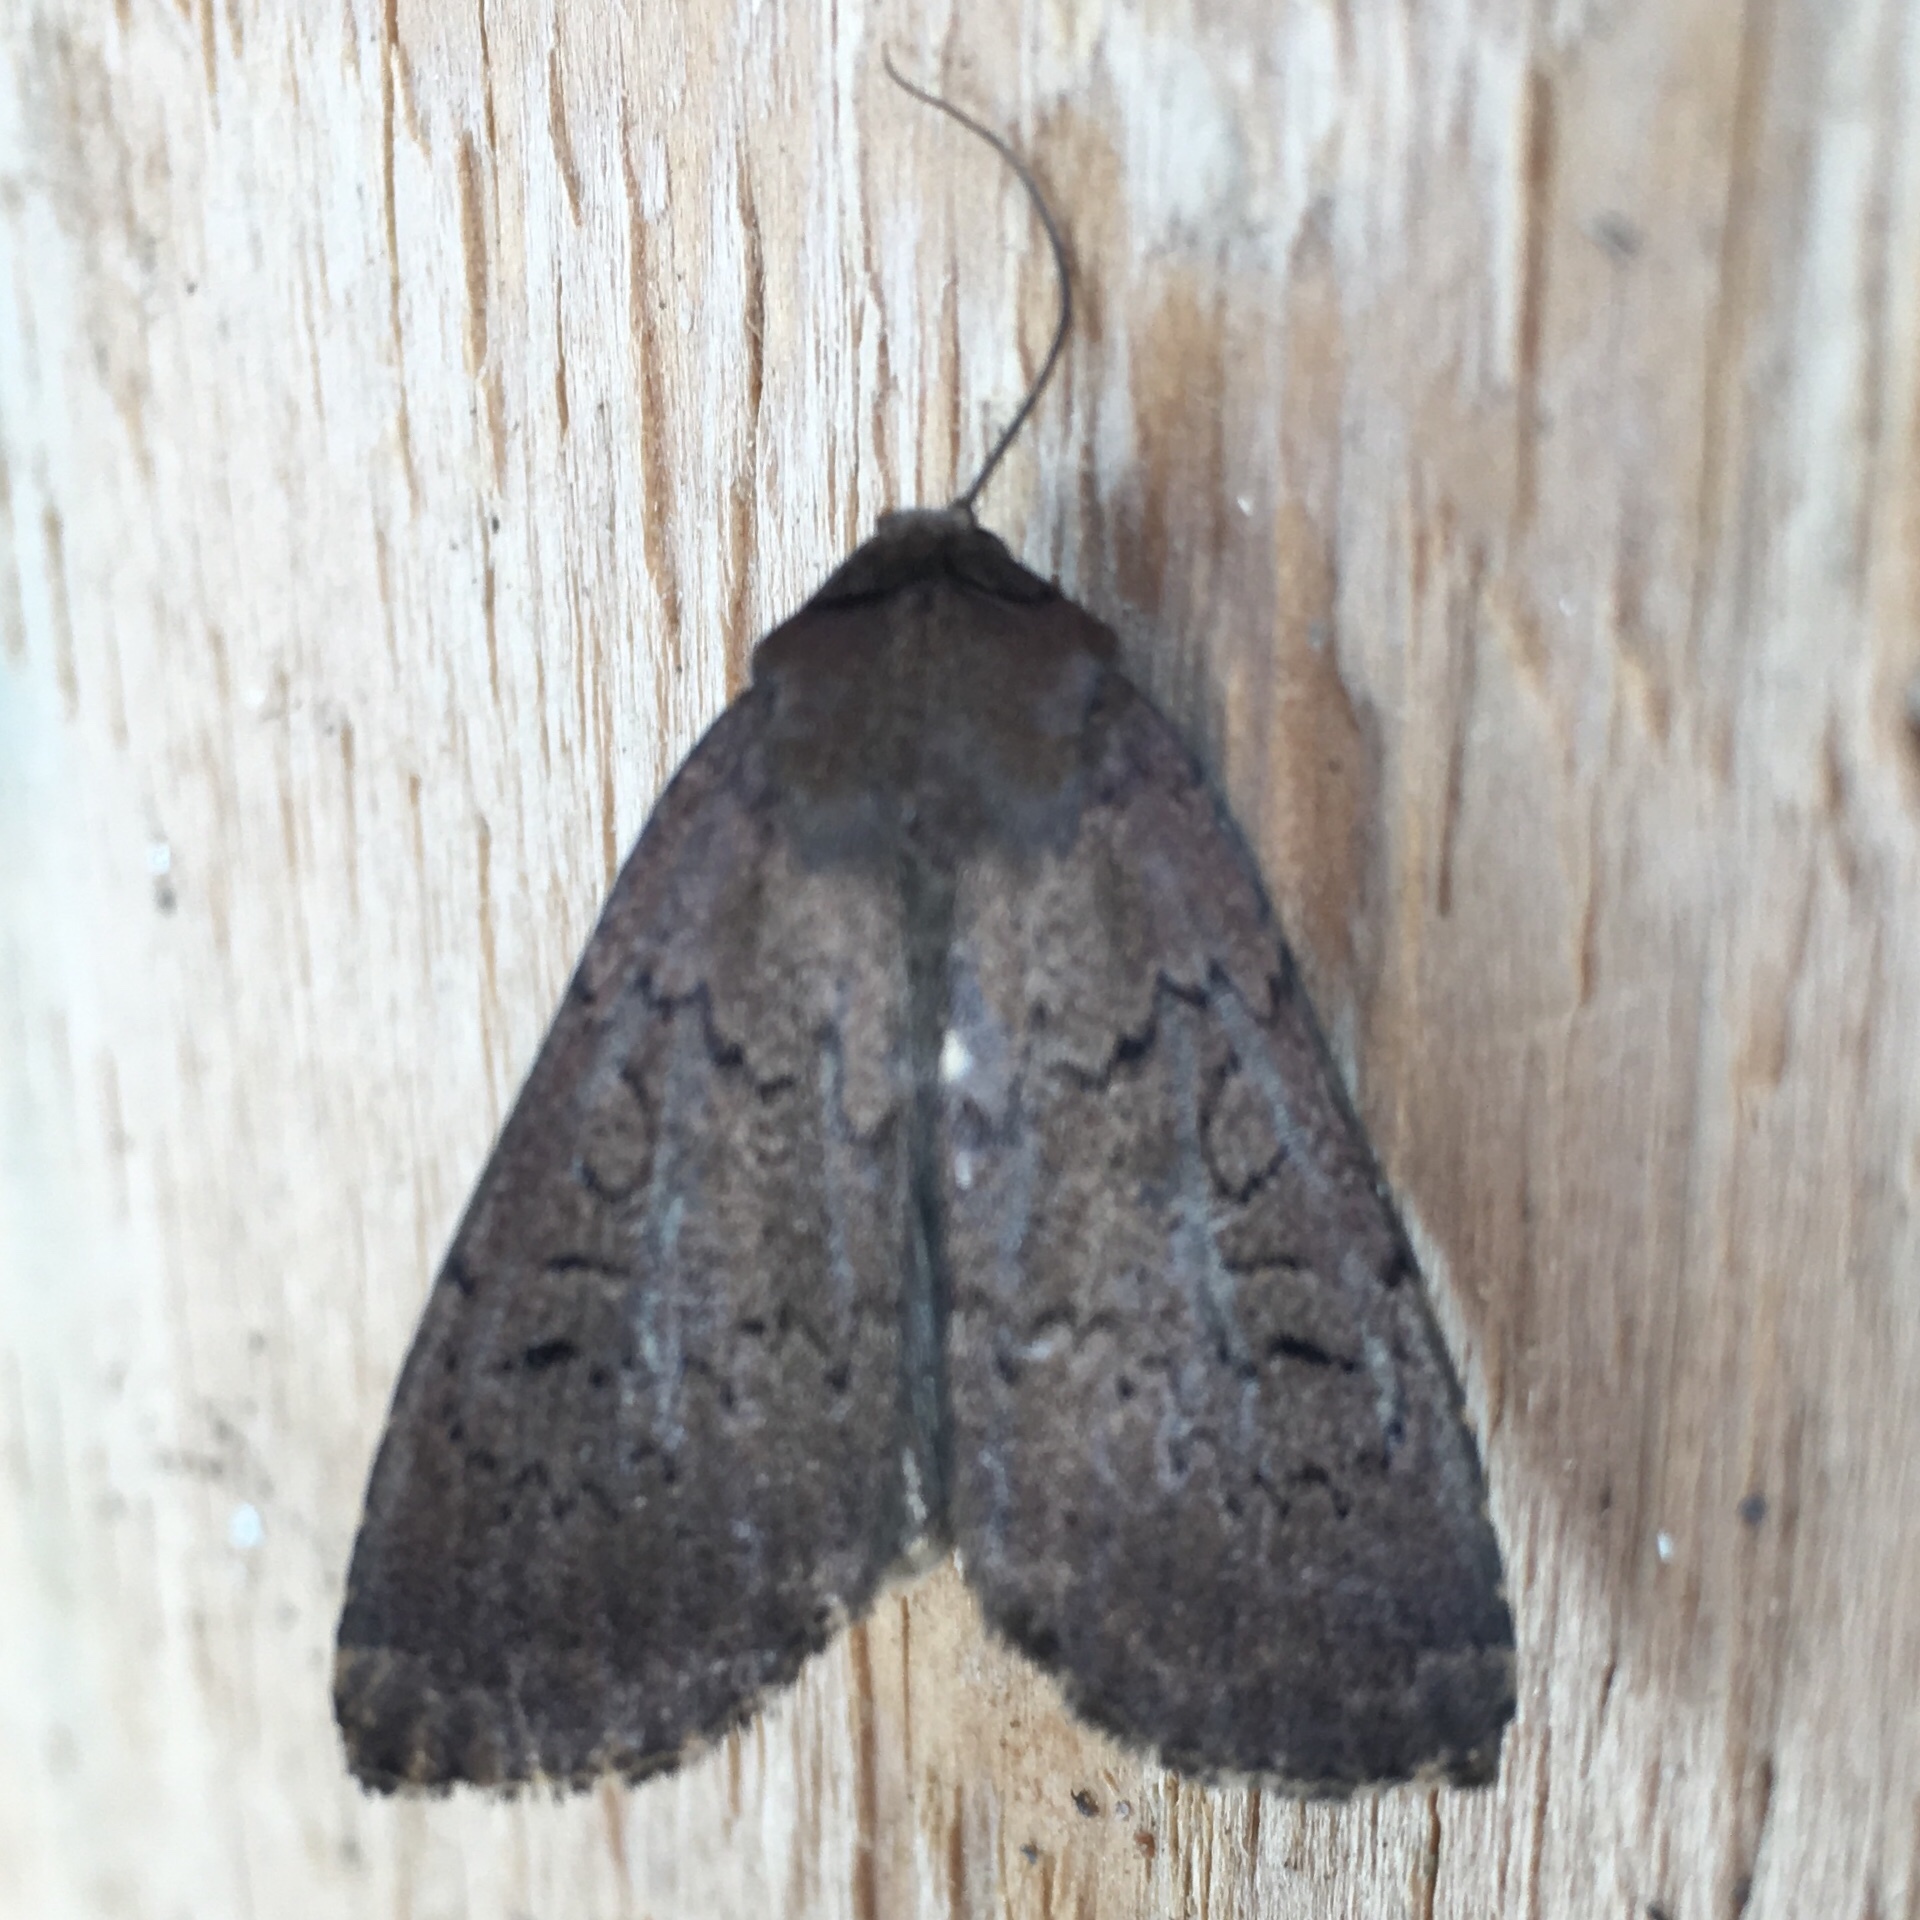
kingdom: Animalia
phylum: Arthropoda
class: Insecta
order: Lepidoptera
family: Noctuidae
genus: Graphiphora
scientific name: Graphiphora augur
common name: Double dart
